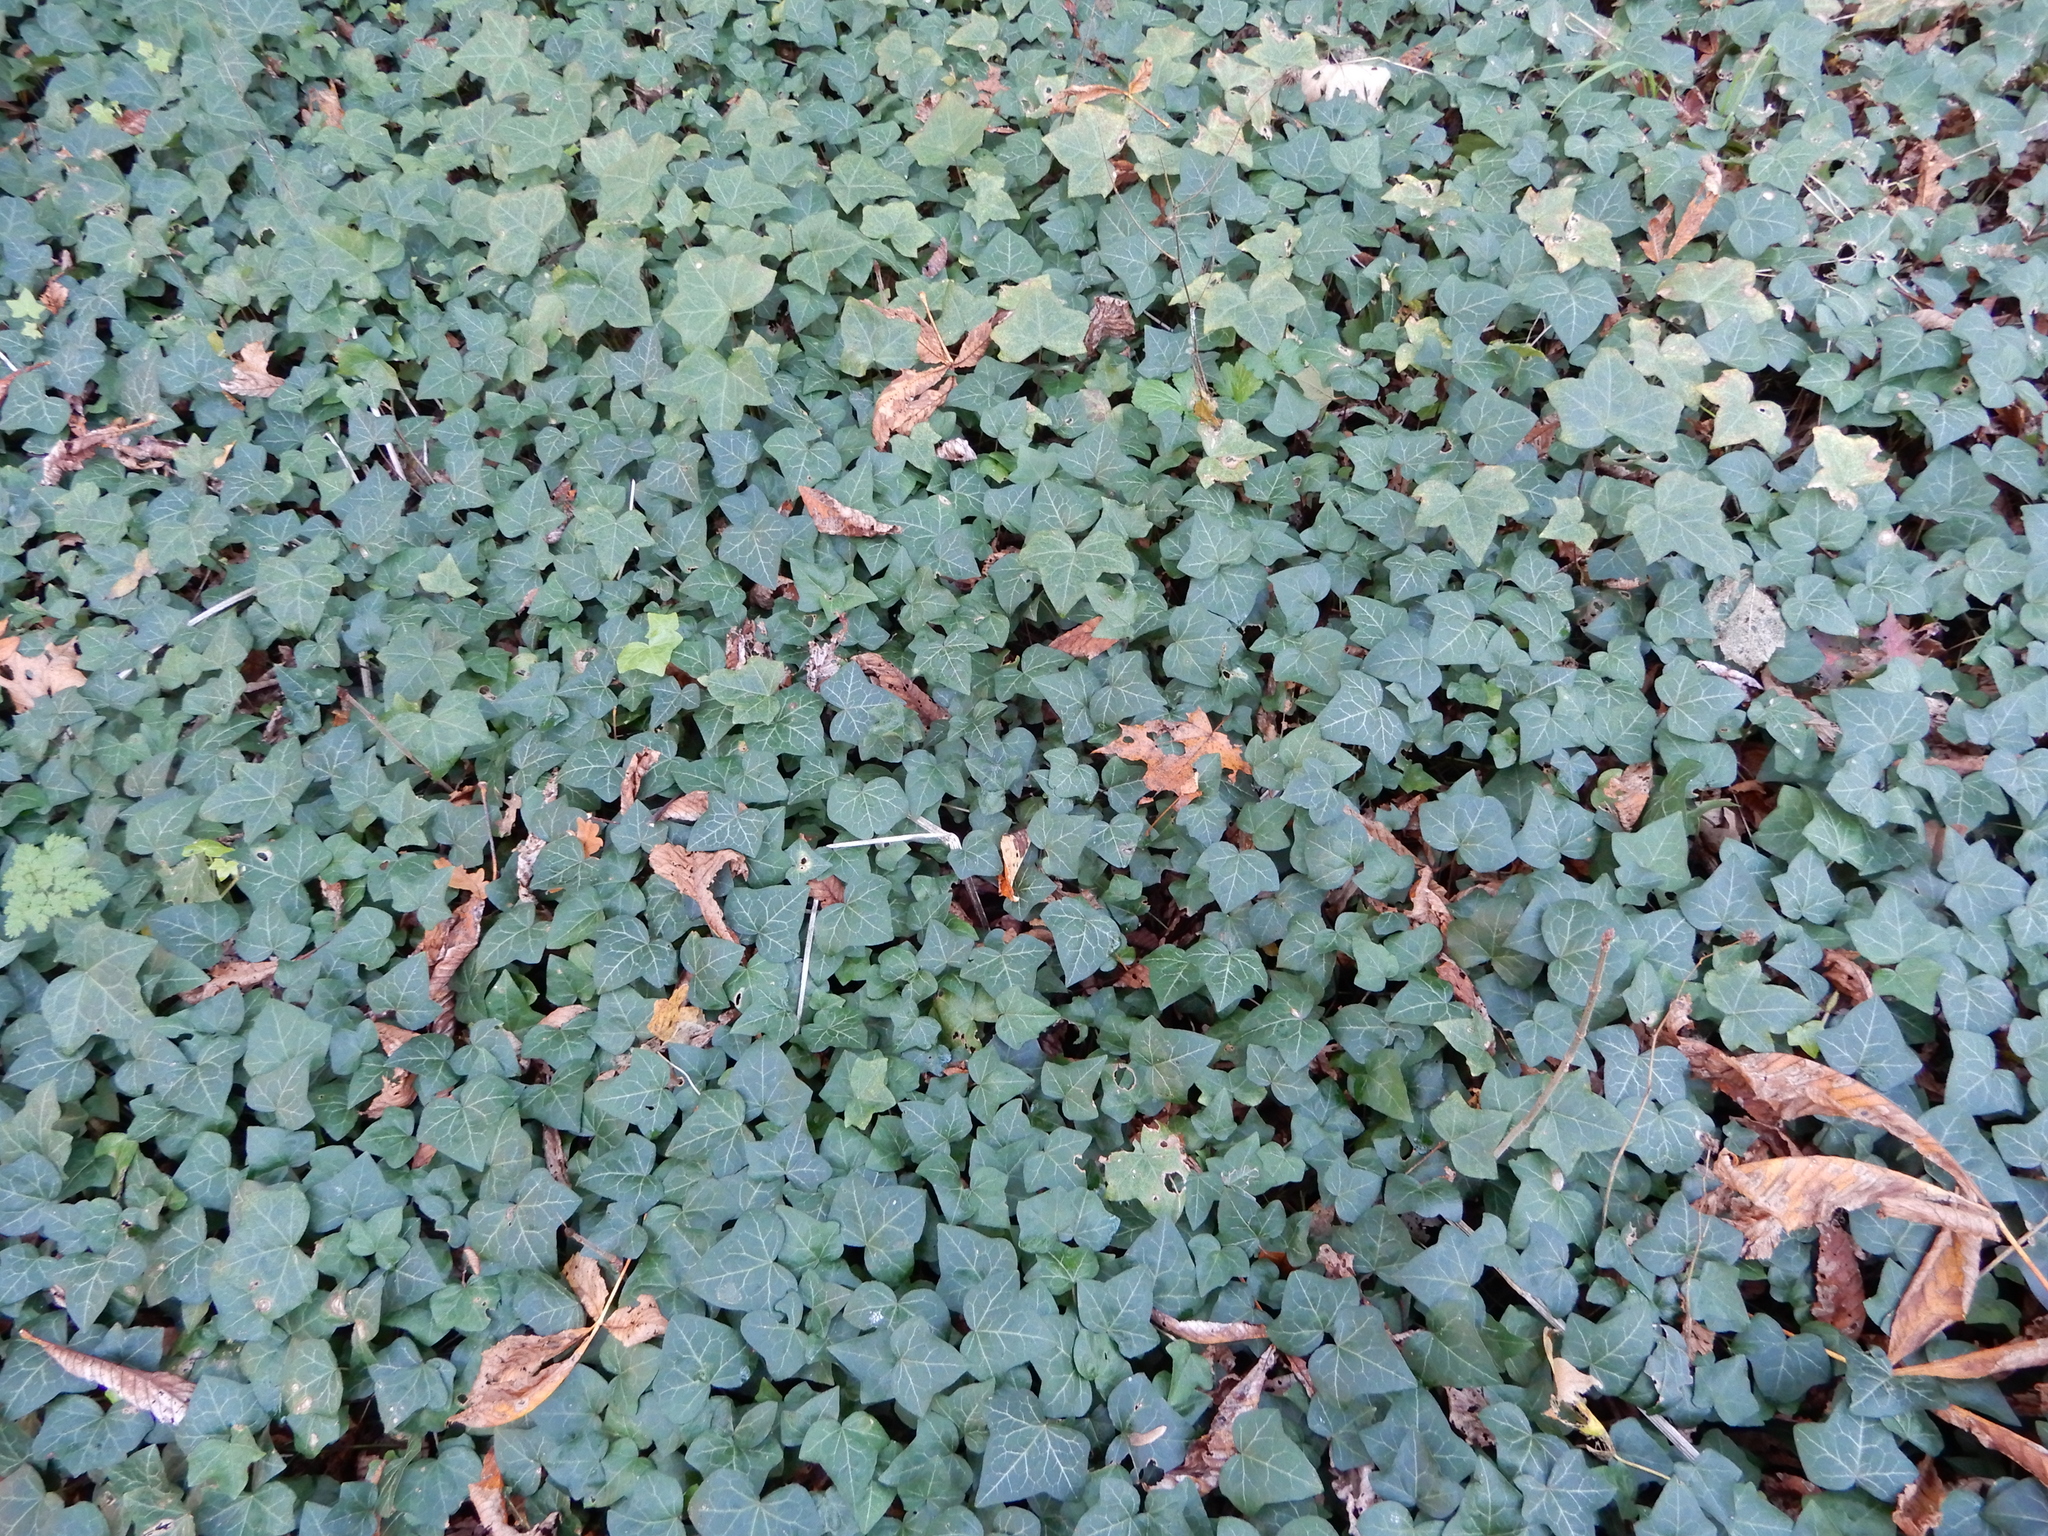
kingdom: Plantae
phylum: Tracheophyta
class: Magnoliopsida
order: Apiales
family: Araliaceae
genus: Hedera
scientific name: Hedera helix
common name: Ivy
